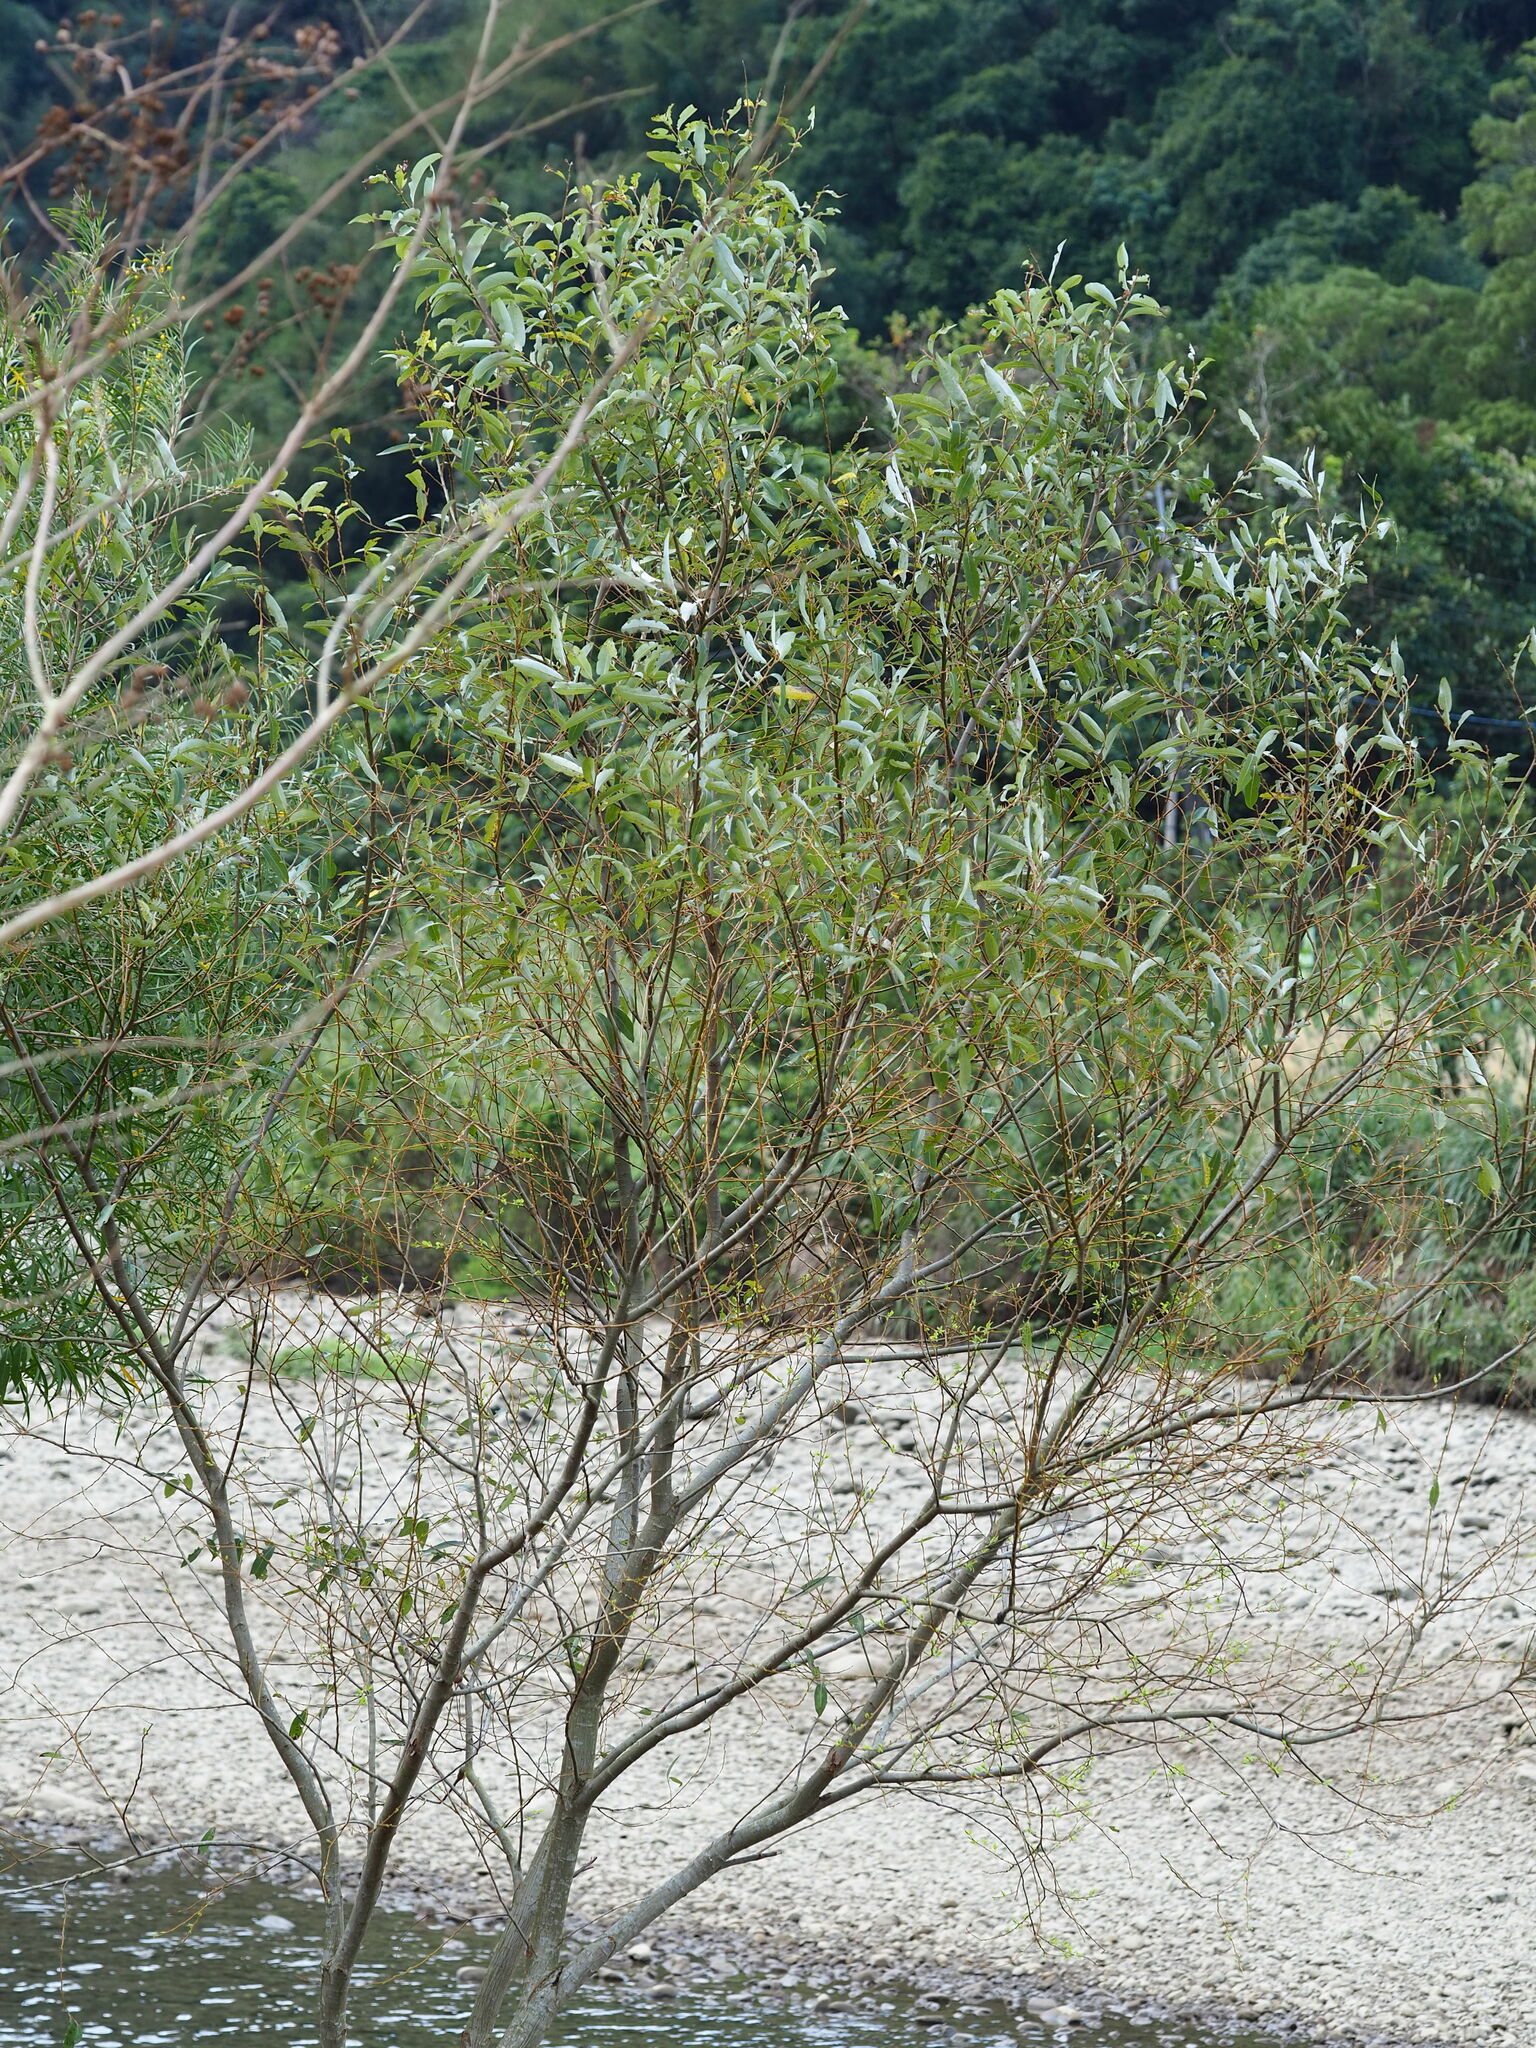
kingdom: Plantae
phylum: Tracheophyta
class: Magnoliopsida
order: Malpighiales
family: Salicaceae
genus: Salix
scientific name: Salix mesnyi
